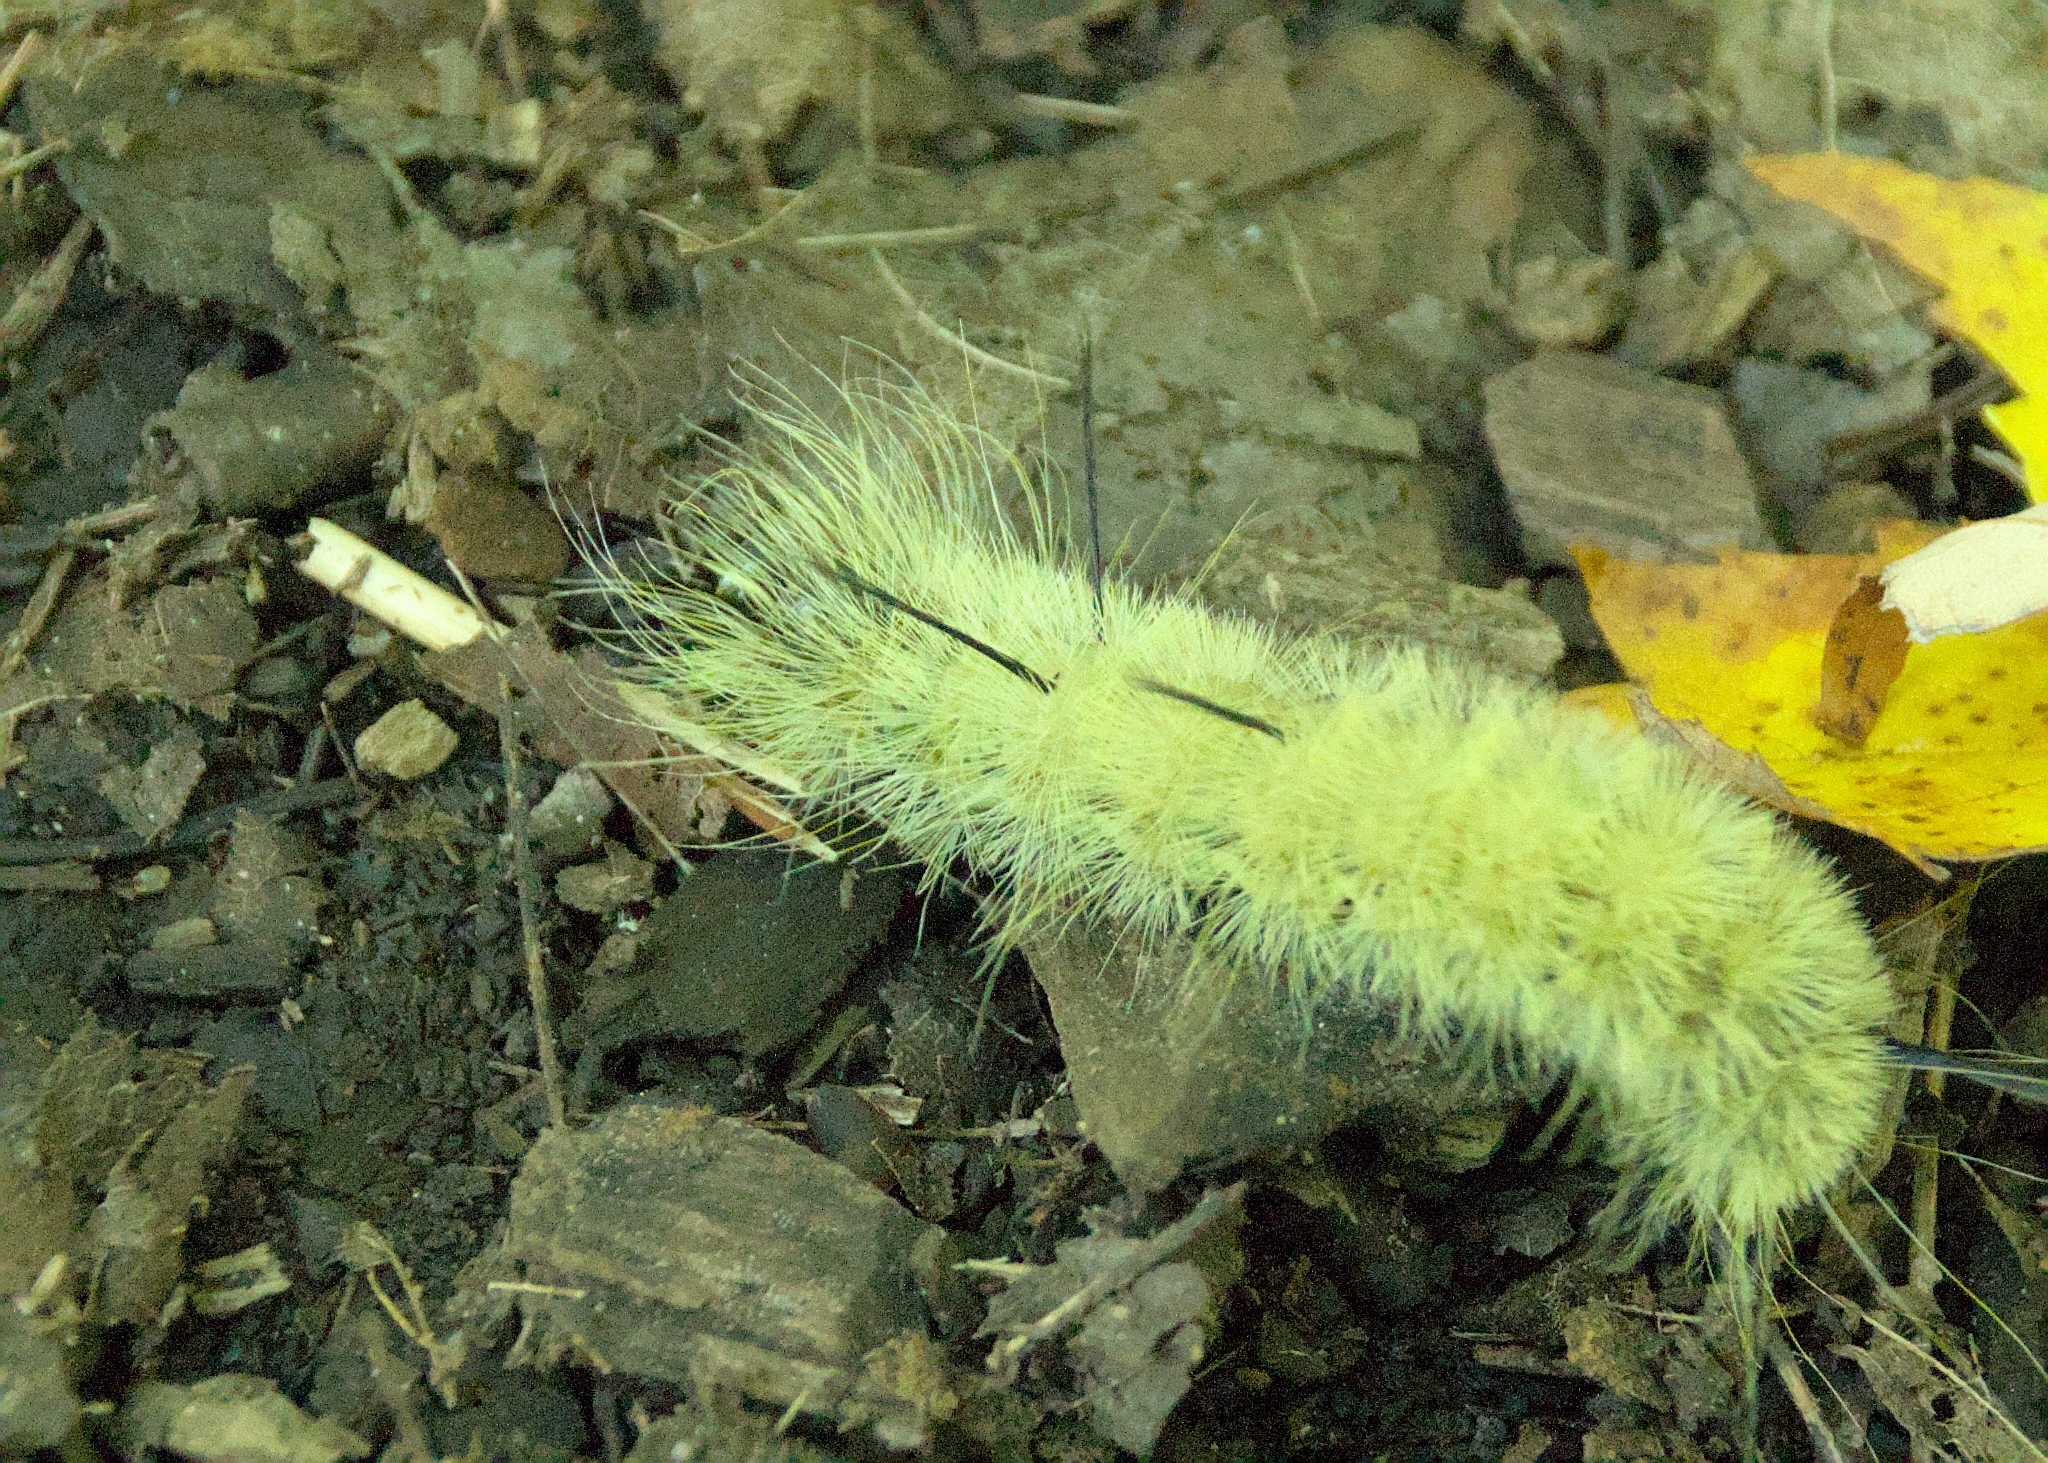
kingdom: Animalia
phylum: Arthropoda
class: Insecta
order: Lepidoptera
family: Noctuidae
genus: Acronicta
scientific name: Acronicta americana
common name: American dagger
